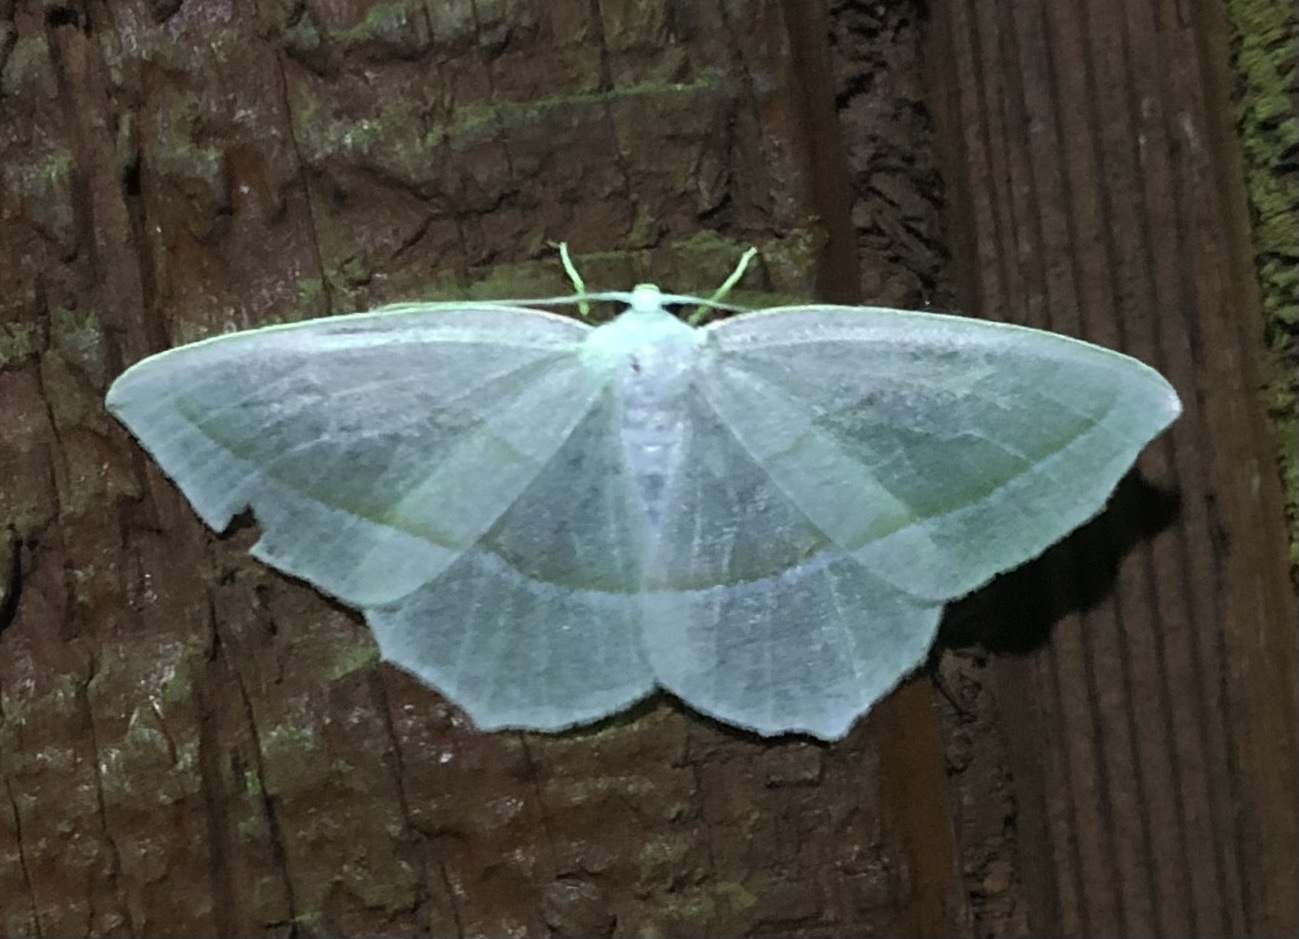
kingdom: Animalia
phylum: Arthropoda
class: Insecta
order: Lepidoptera
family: Geometridae
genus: Campaea
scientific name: Campaea perlata
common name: Fringed looper
